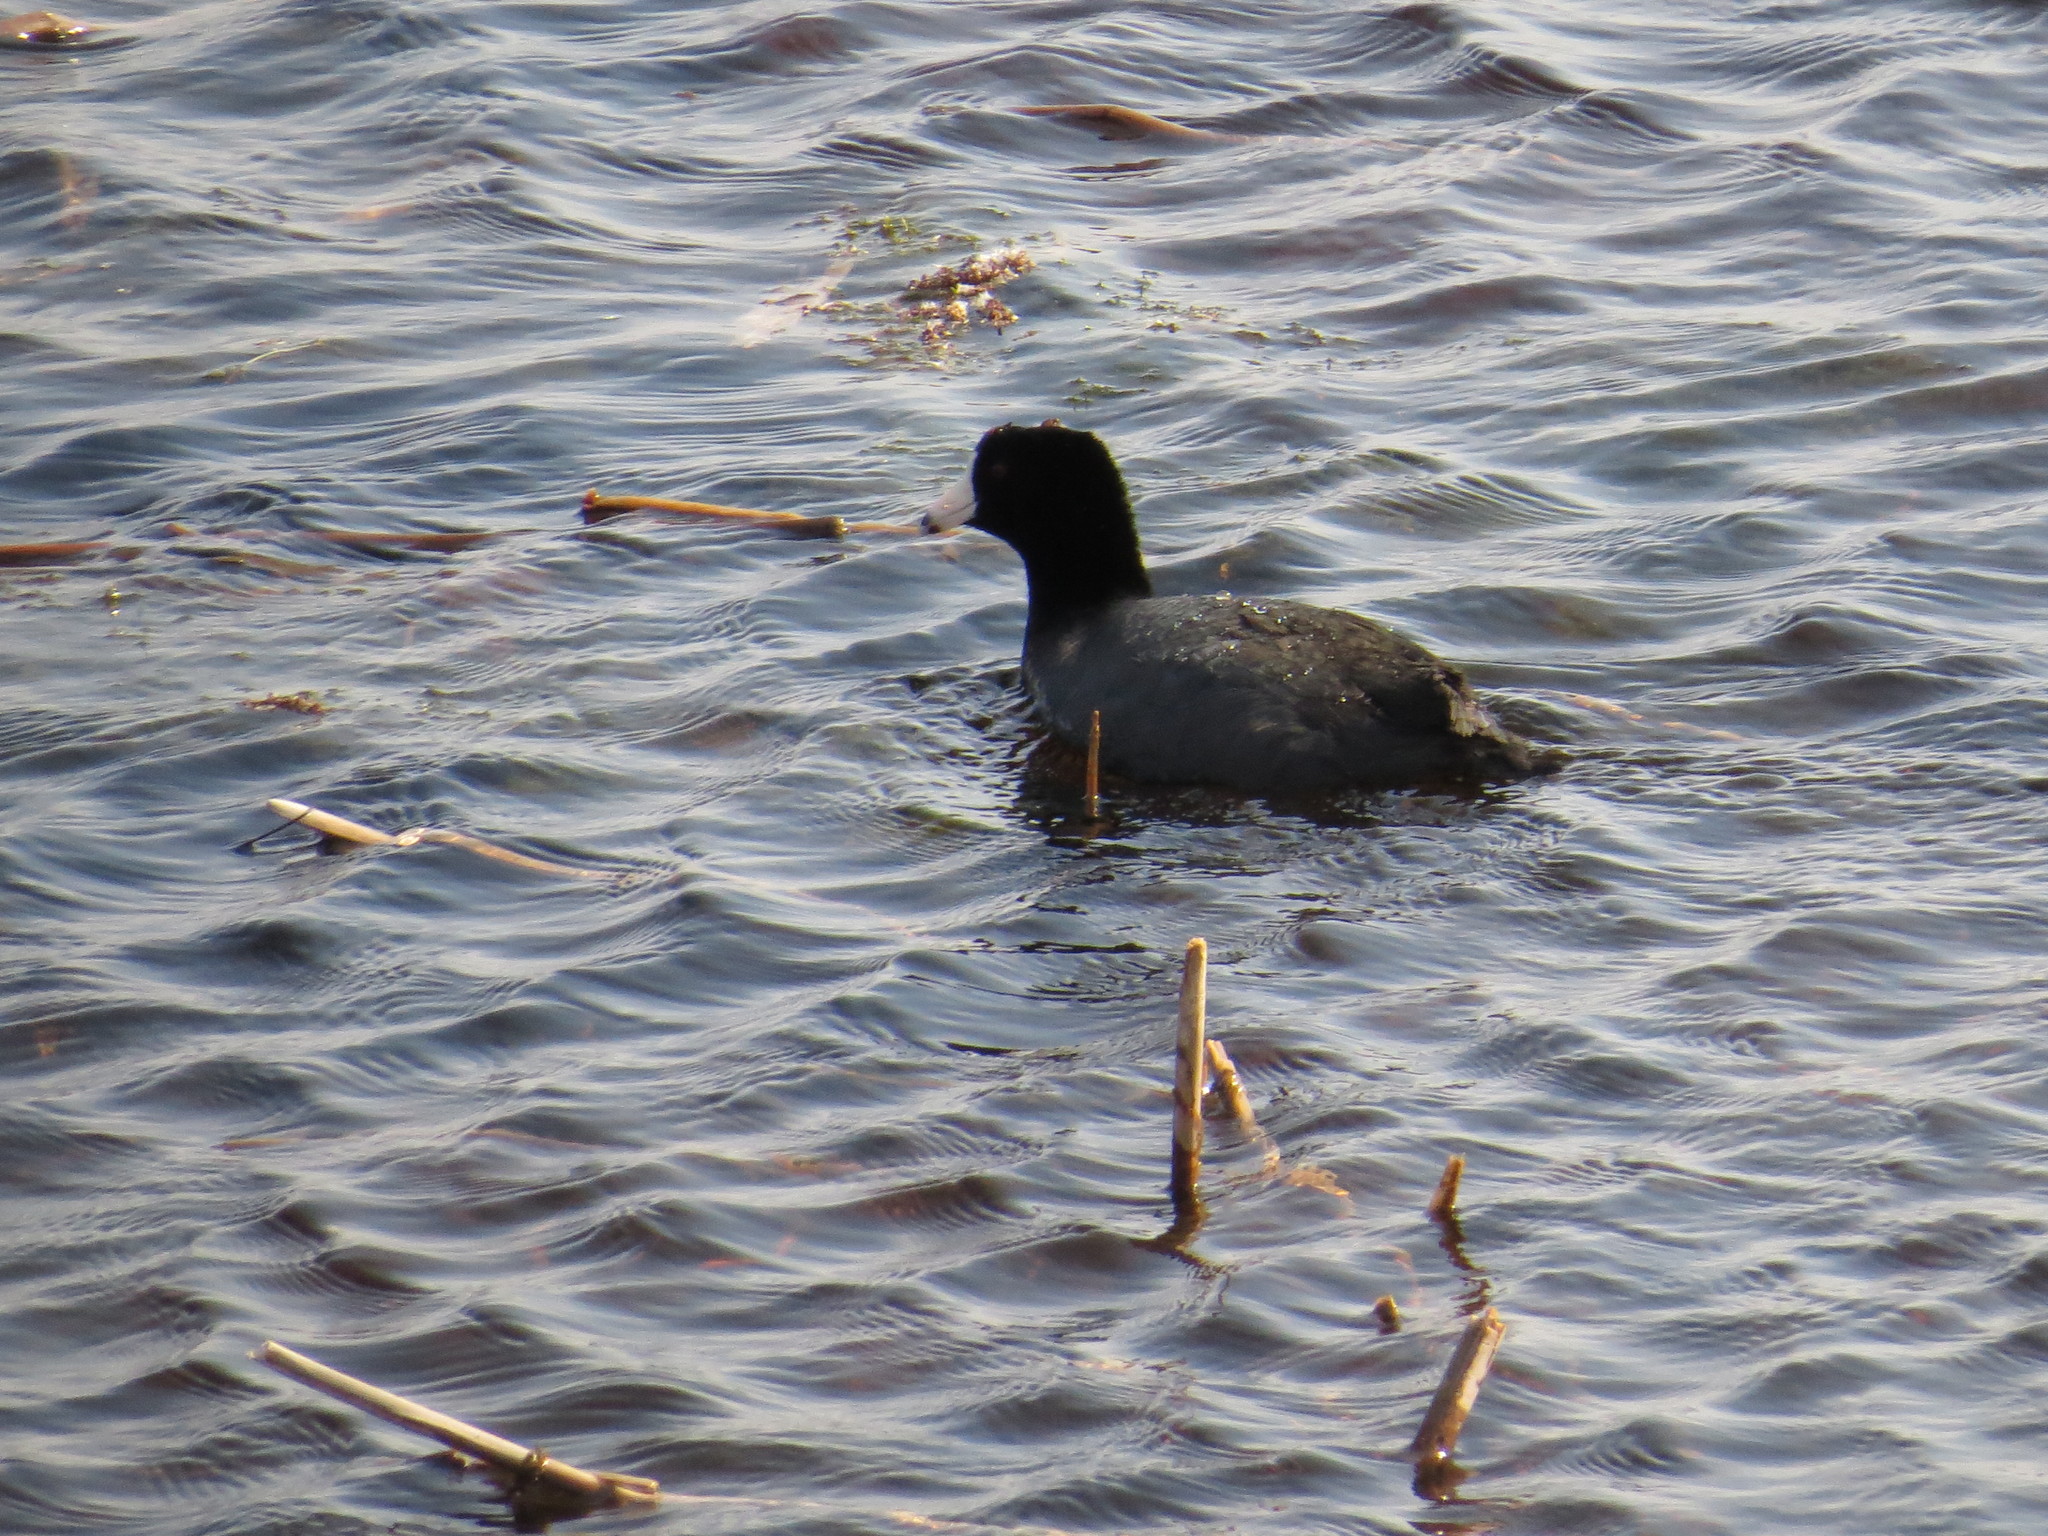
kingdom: Animalia
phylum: Chordata
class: Aves
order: Gruiformes
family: Rallidae
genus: Fulica
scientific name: Fulica americana
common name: American coot
